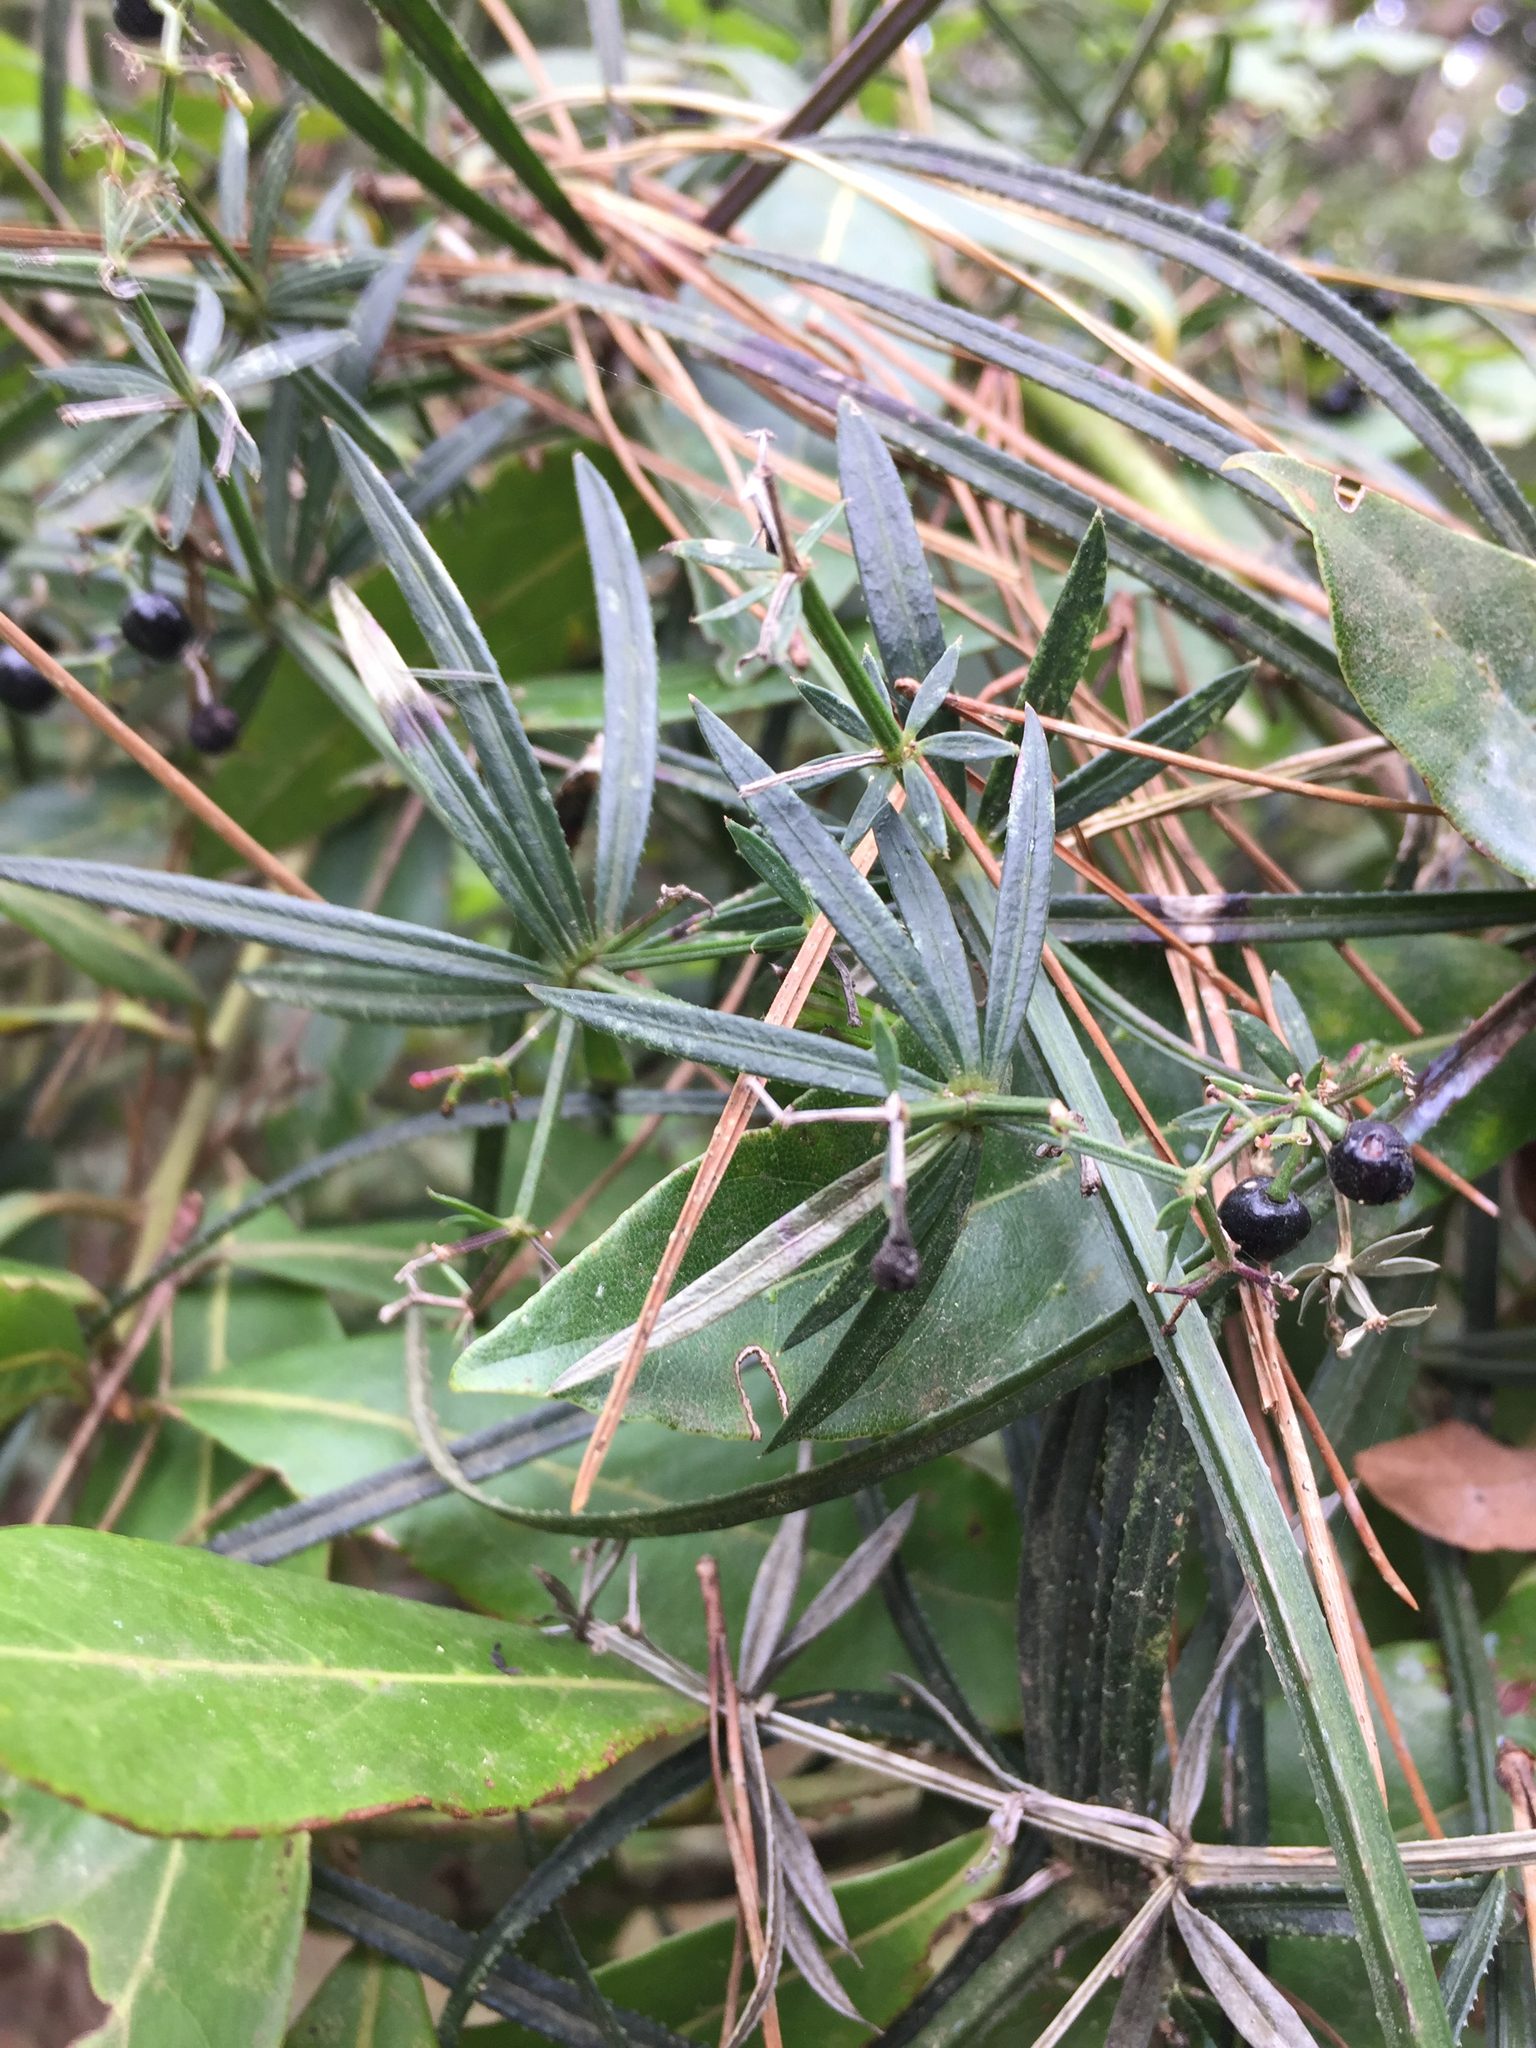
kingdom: Plantae
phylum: Tracheophyta
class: Magnoliopsida
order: Gentianales
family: Rubiaceae
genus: Rubia
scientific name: Rubia occidens
